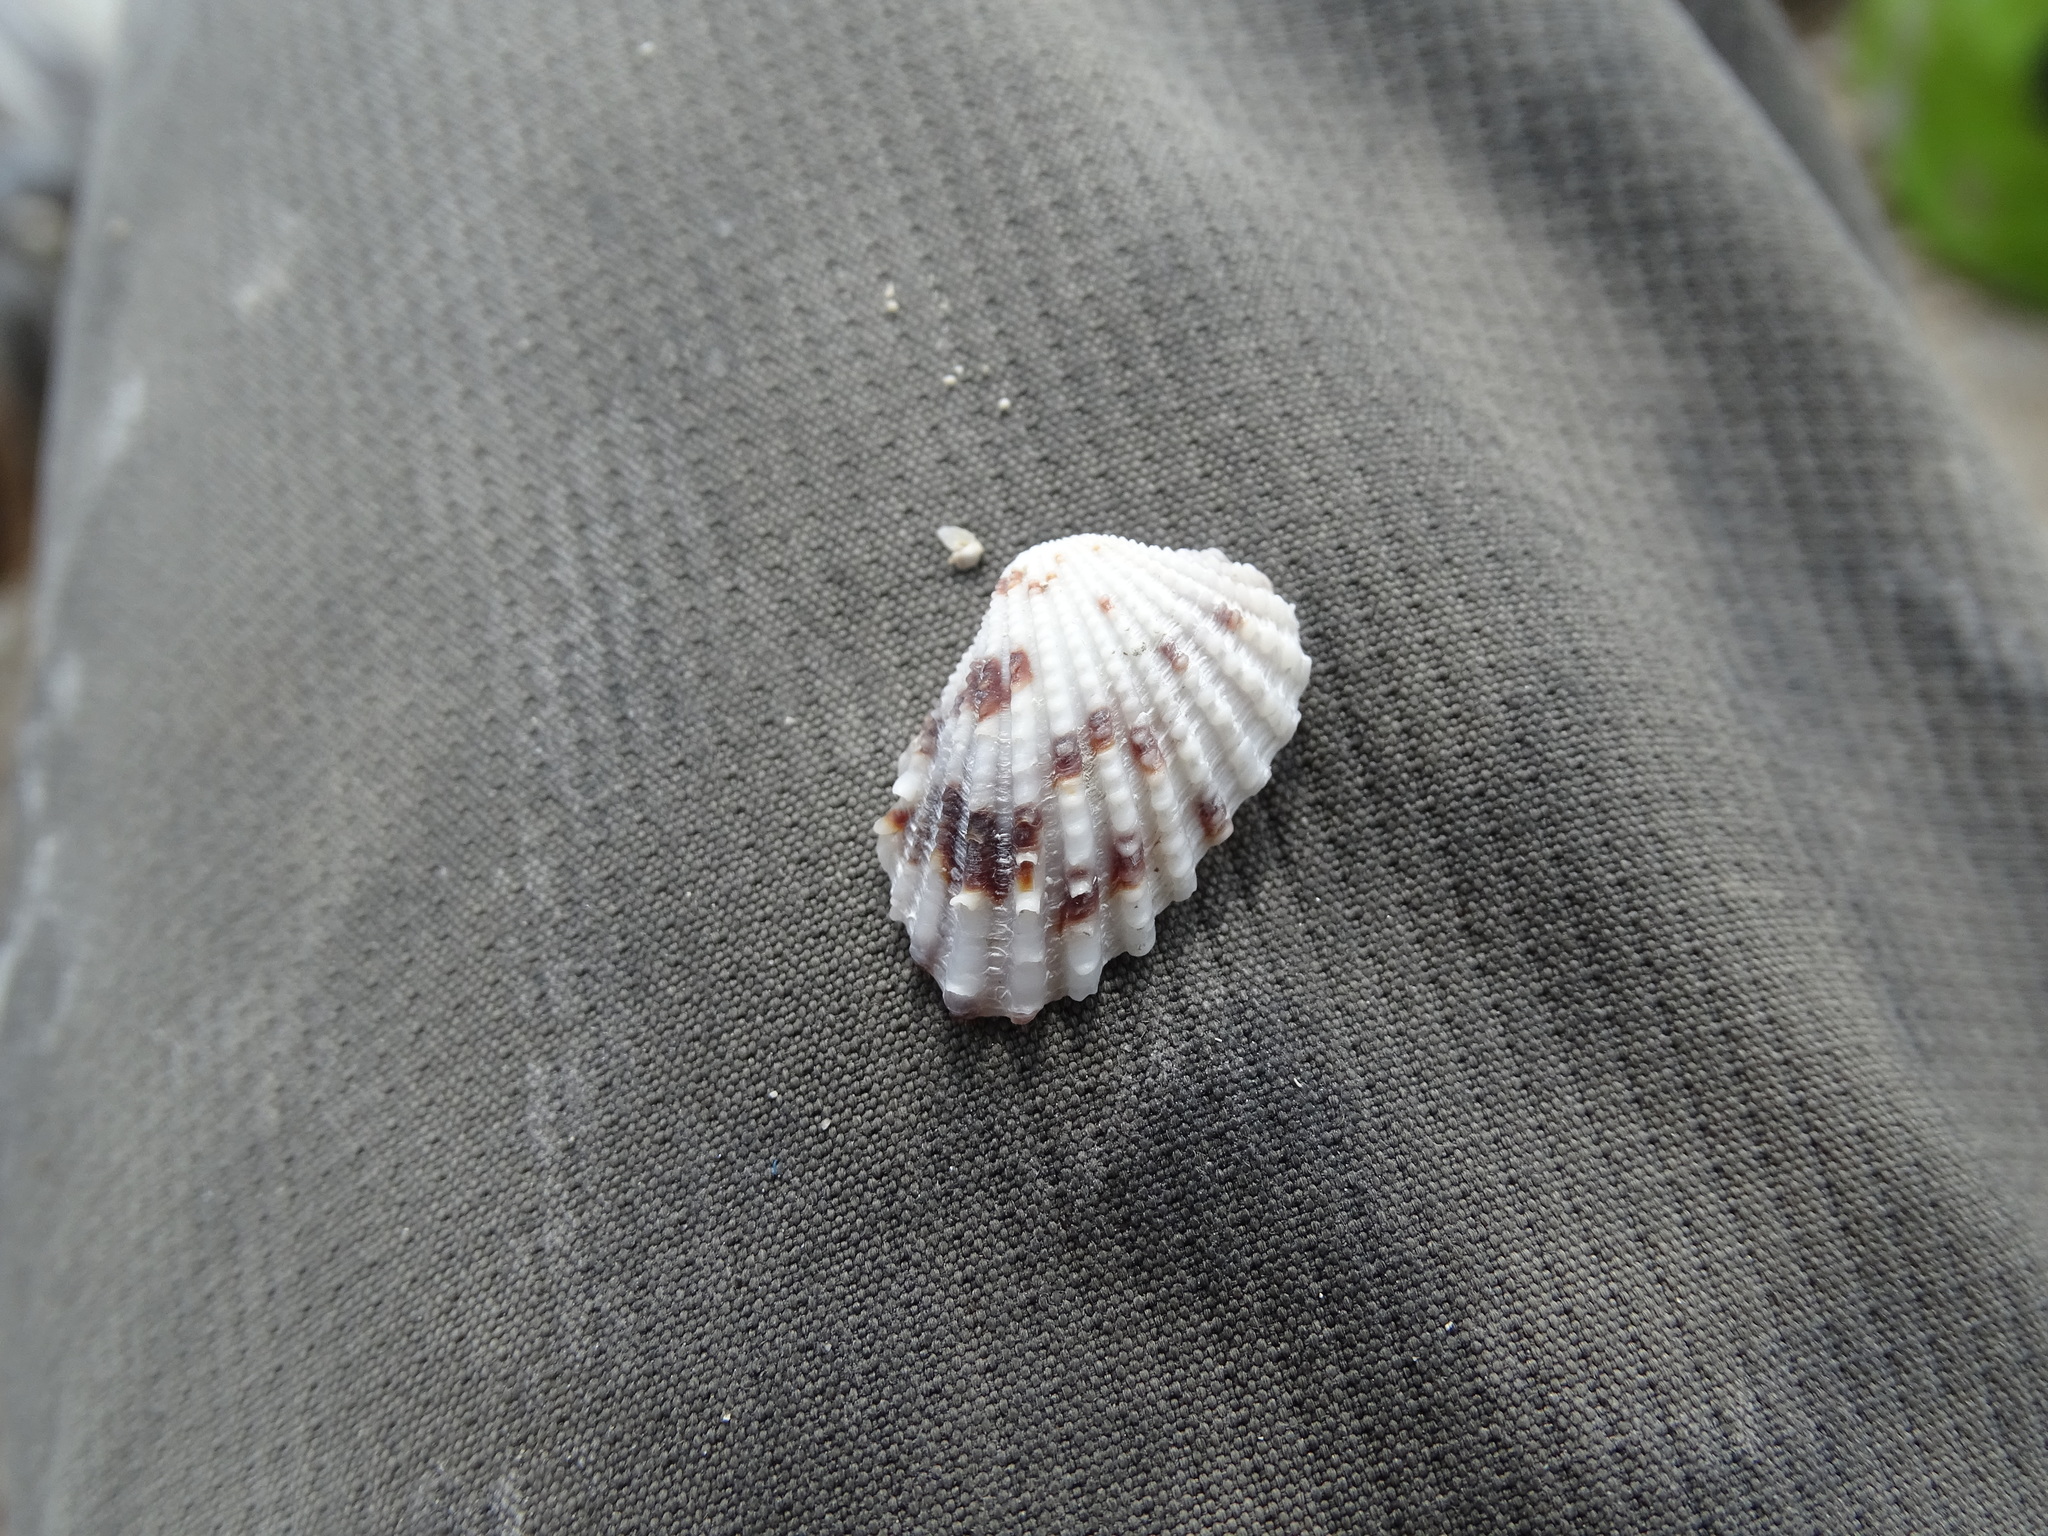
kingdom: Animalia
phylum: Mollusca
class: Bivalvia
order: Carditida
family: Carditidae
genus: Cardites
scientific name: Cardites floridanus
